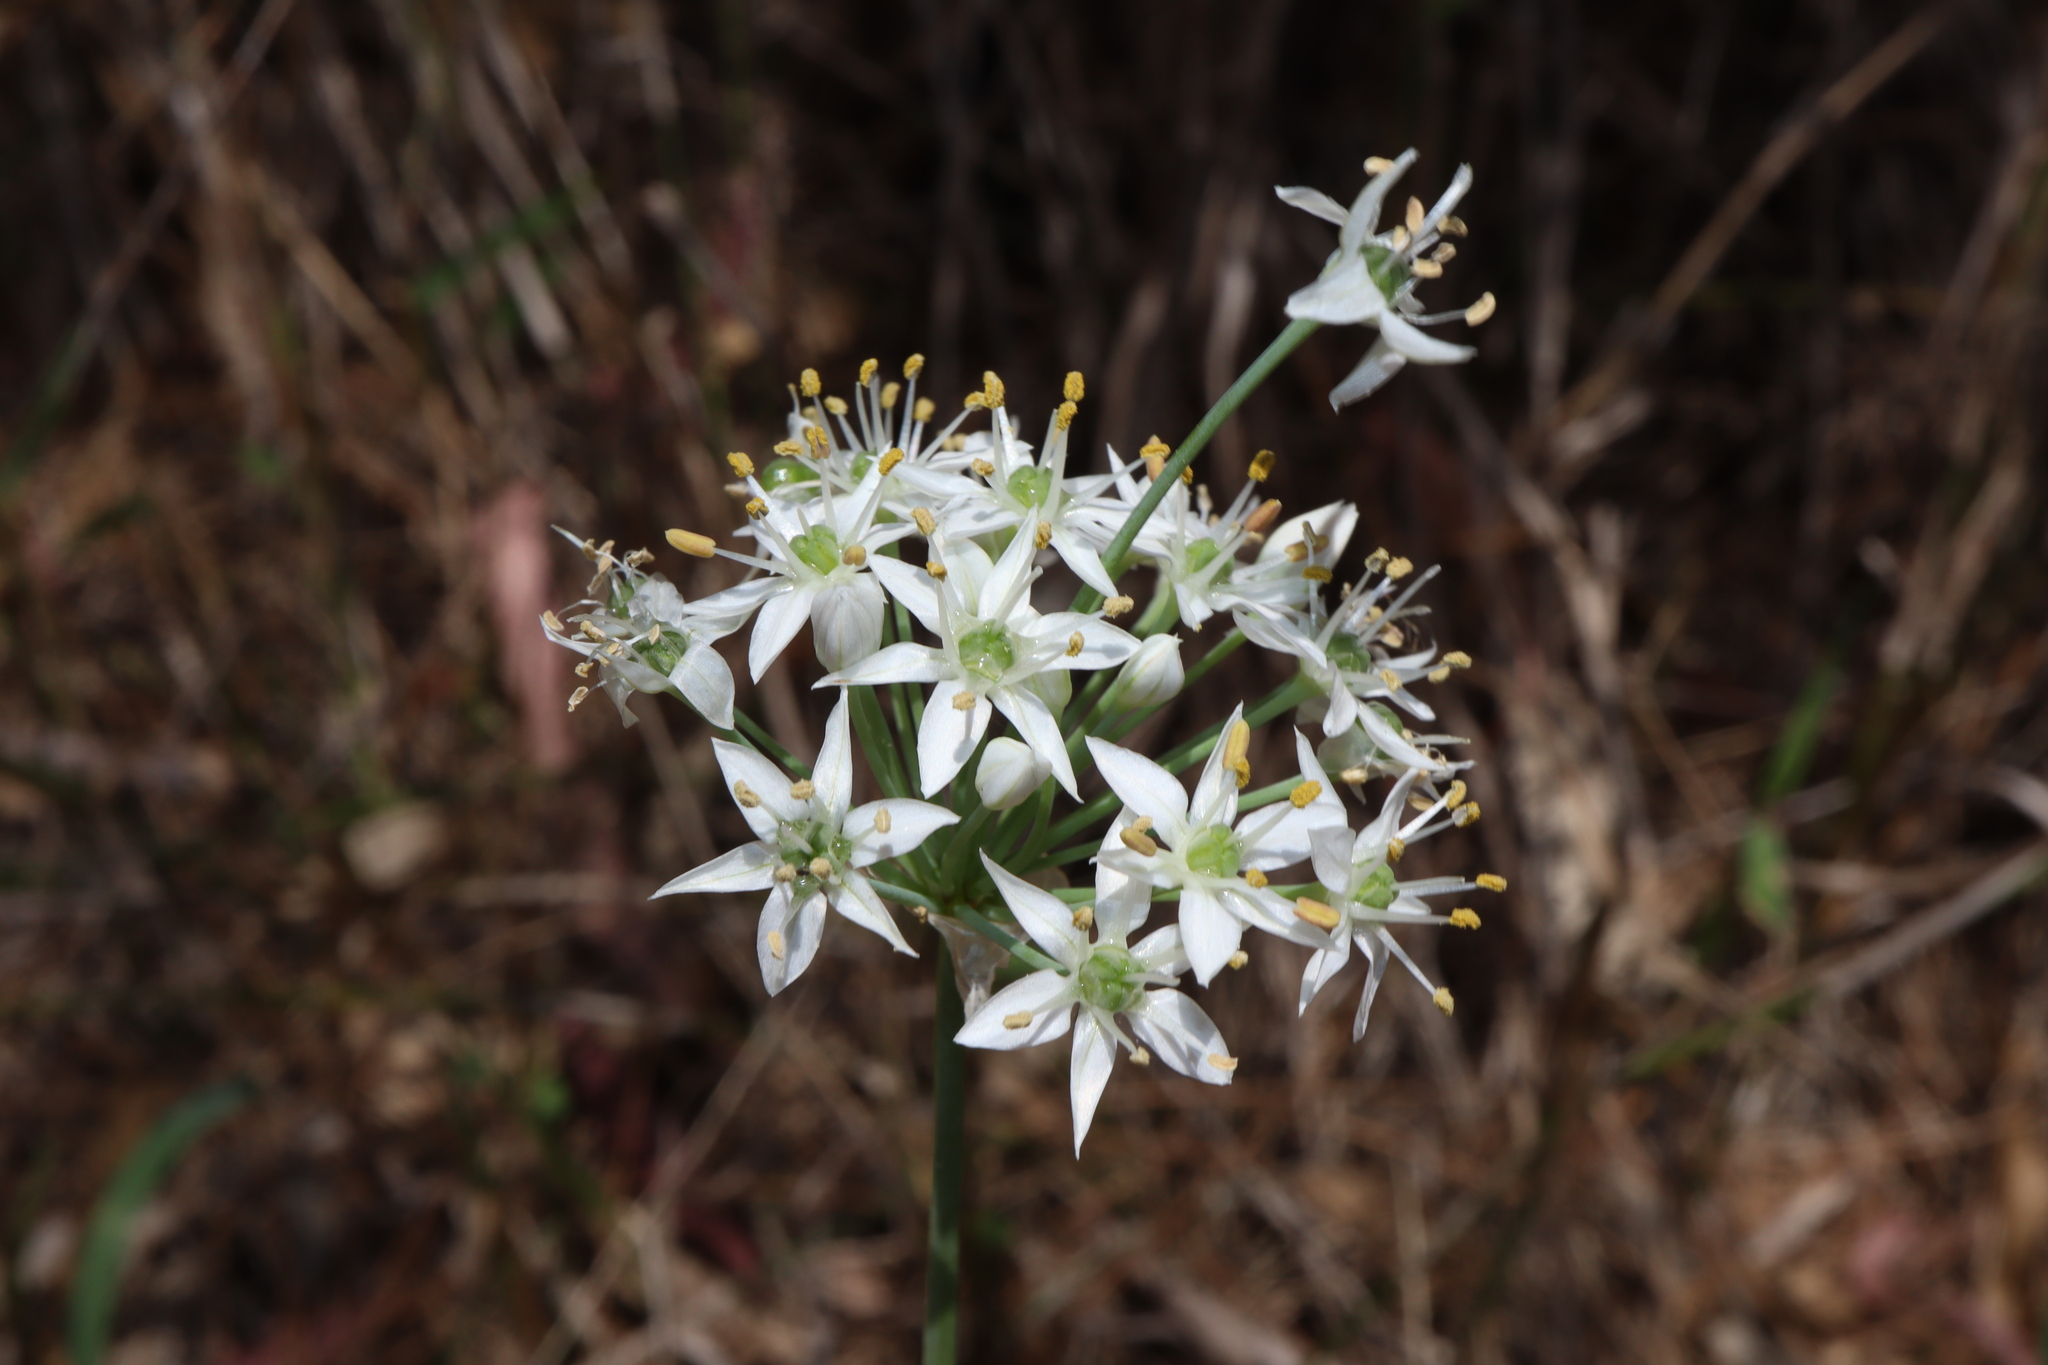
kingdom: Plantae
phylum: Tracheophyta
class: Liliopsida
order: Asparagales
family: Amaryllidaceae
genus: Allium
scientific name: Allium tuberosum
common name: Chinese chives
